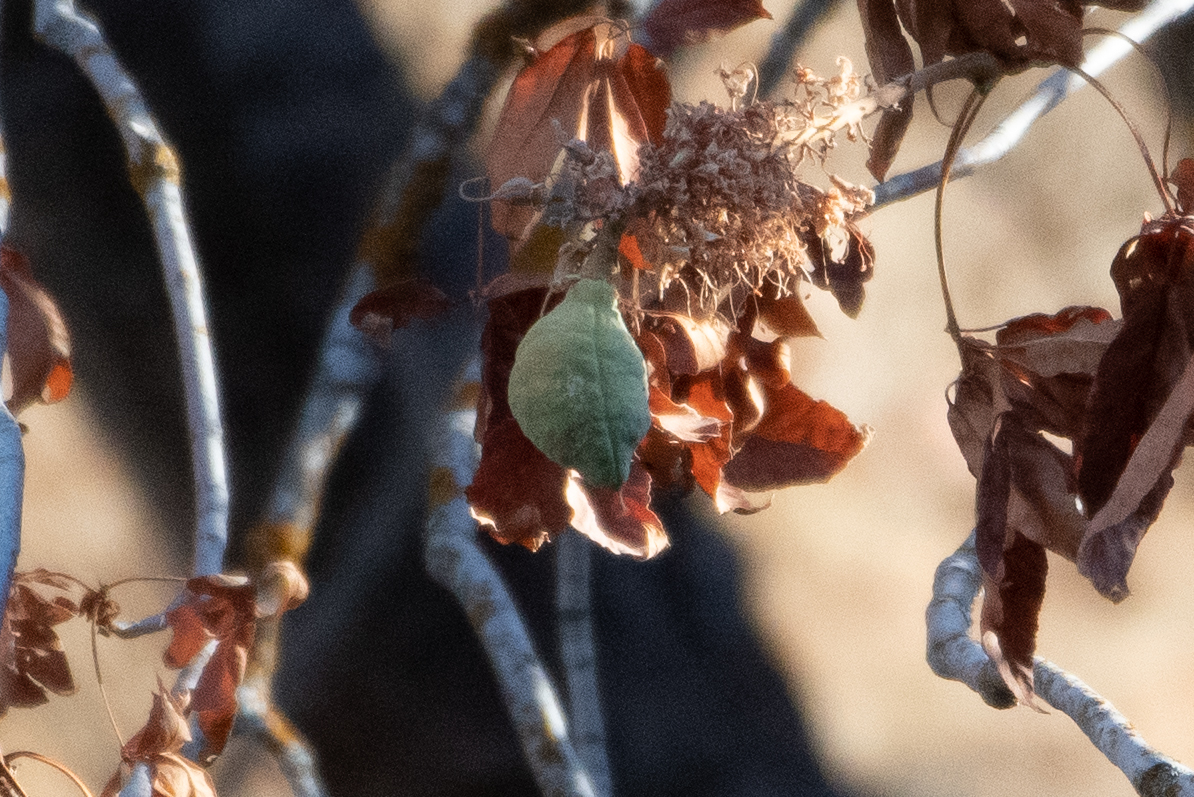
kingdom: Plantae
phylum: Tracheophyta
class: Magnoliopsida
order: Sapindales
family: Sapindaceae
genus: Aesculus
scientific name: Aesculus californica
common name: California buckeye
